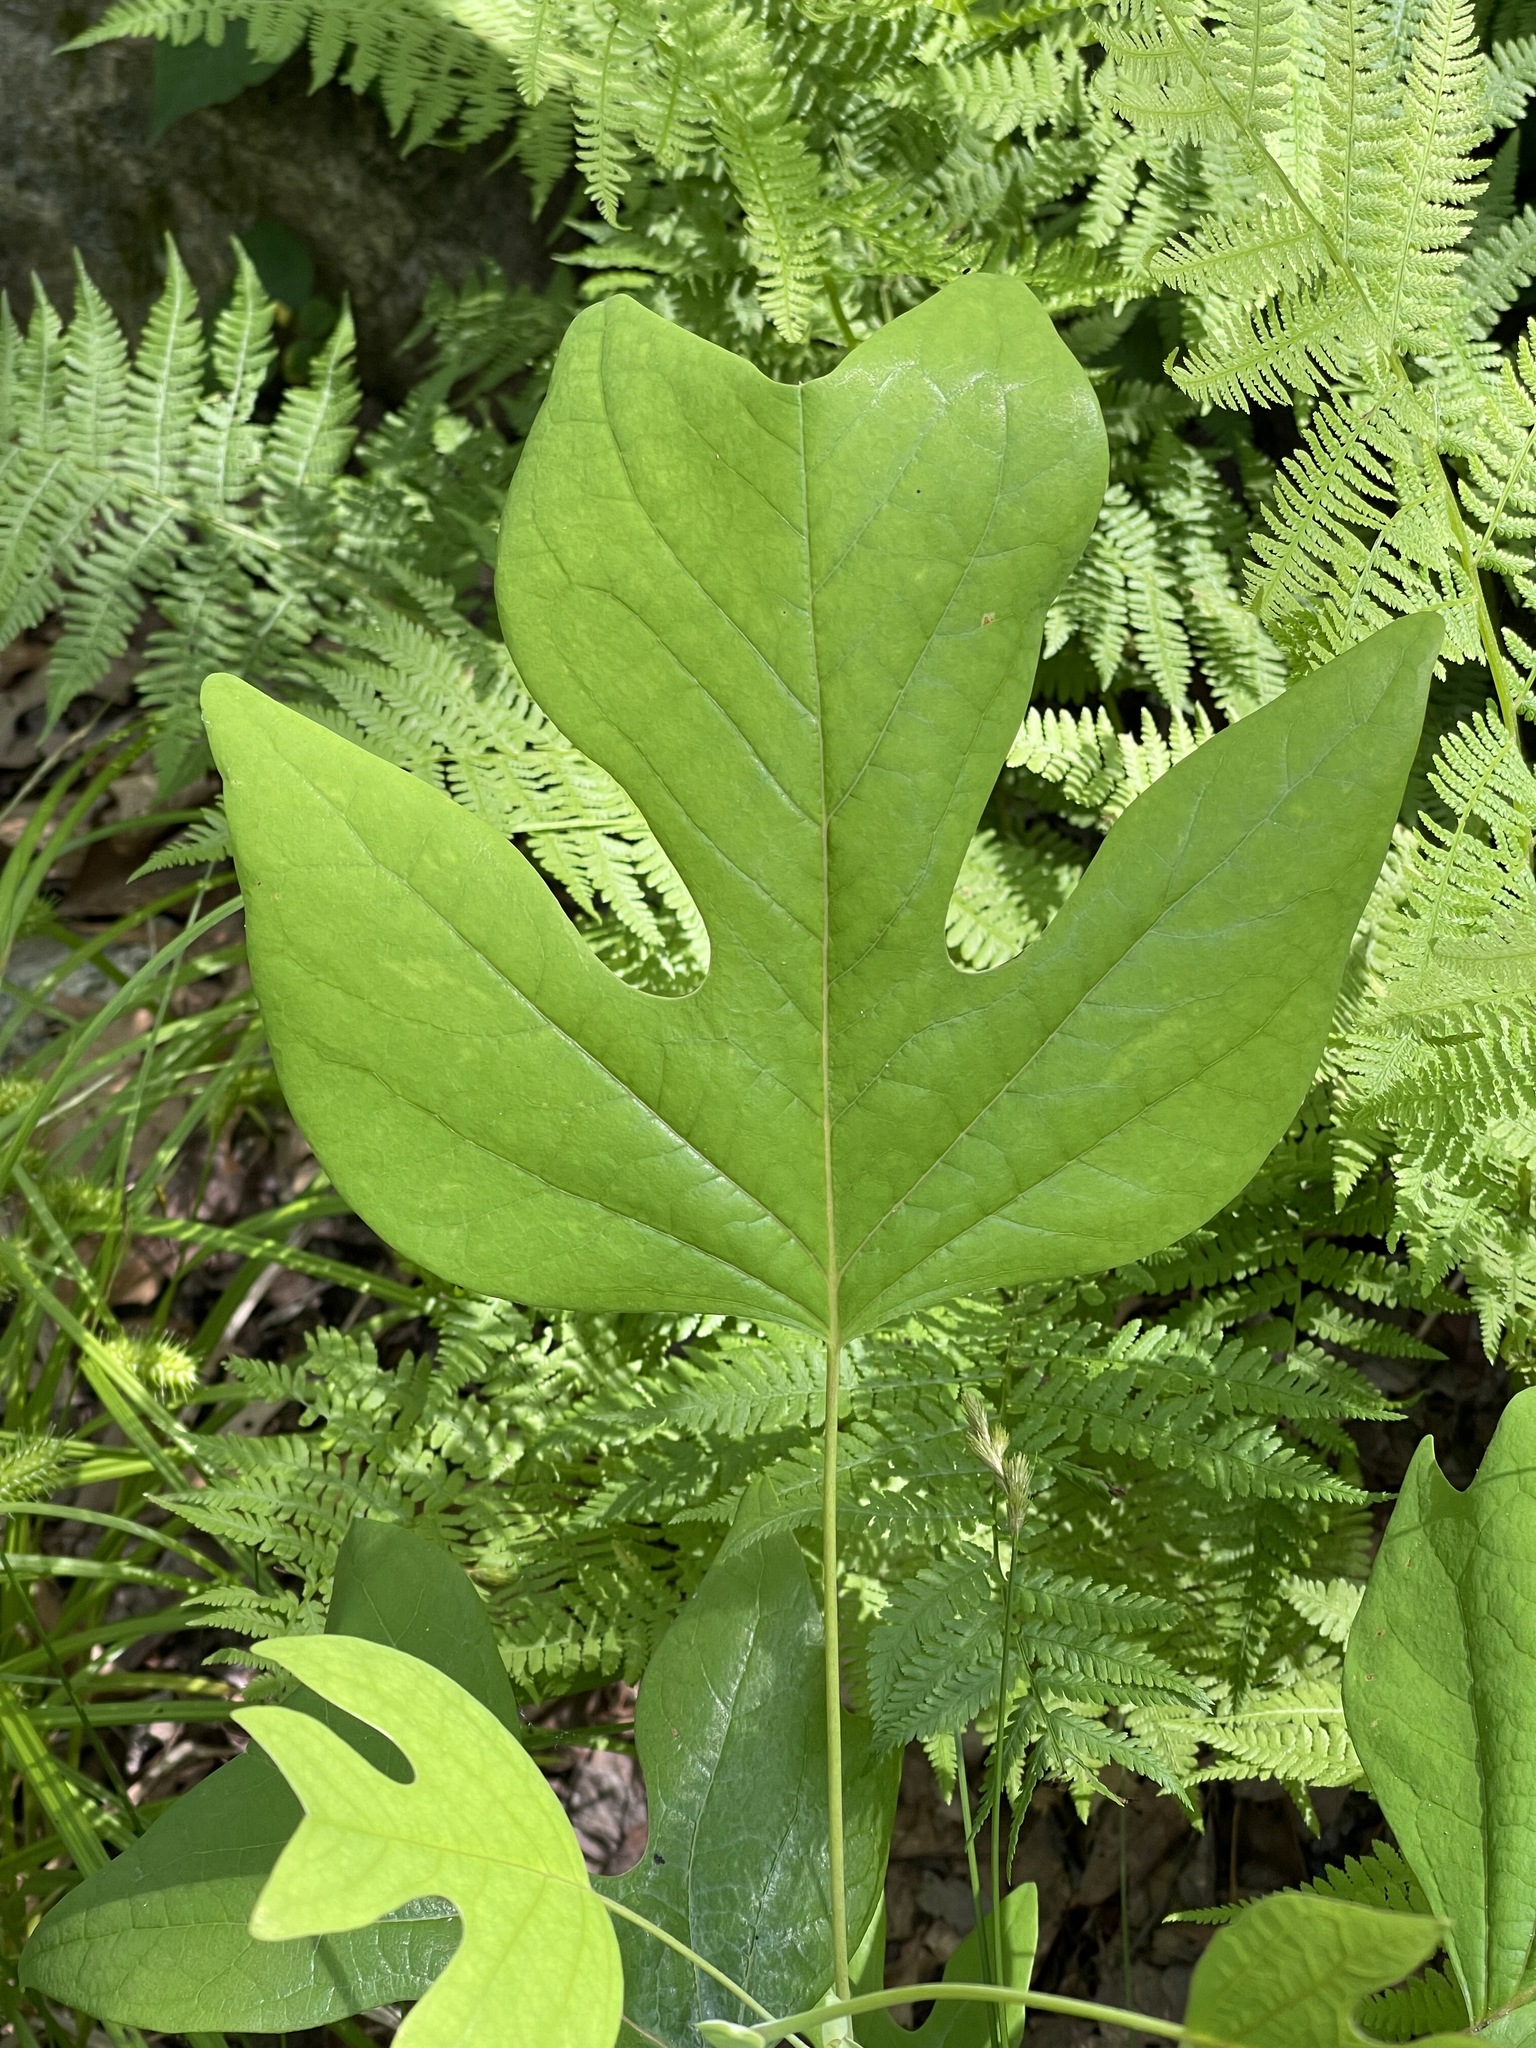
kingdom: Plantae
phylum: Tracheophyta
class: Magnoliopsida
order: Magnoliales
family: Magnoliaceae
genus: Liriodendron
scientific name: Liriodendron tulipifera
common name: Tulip tree
